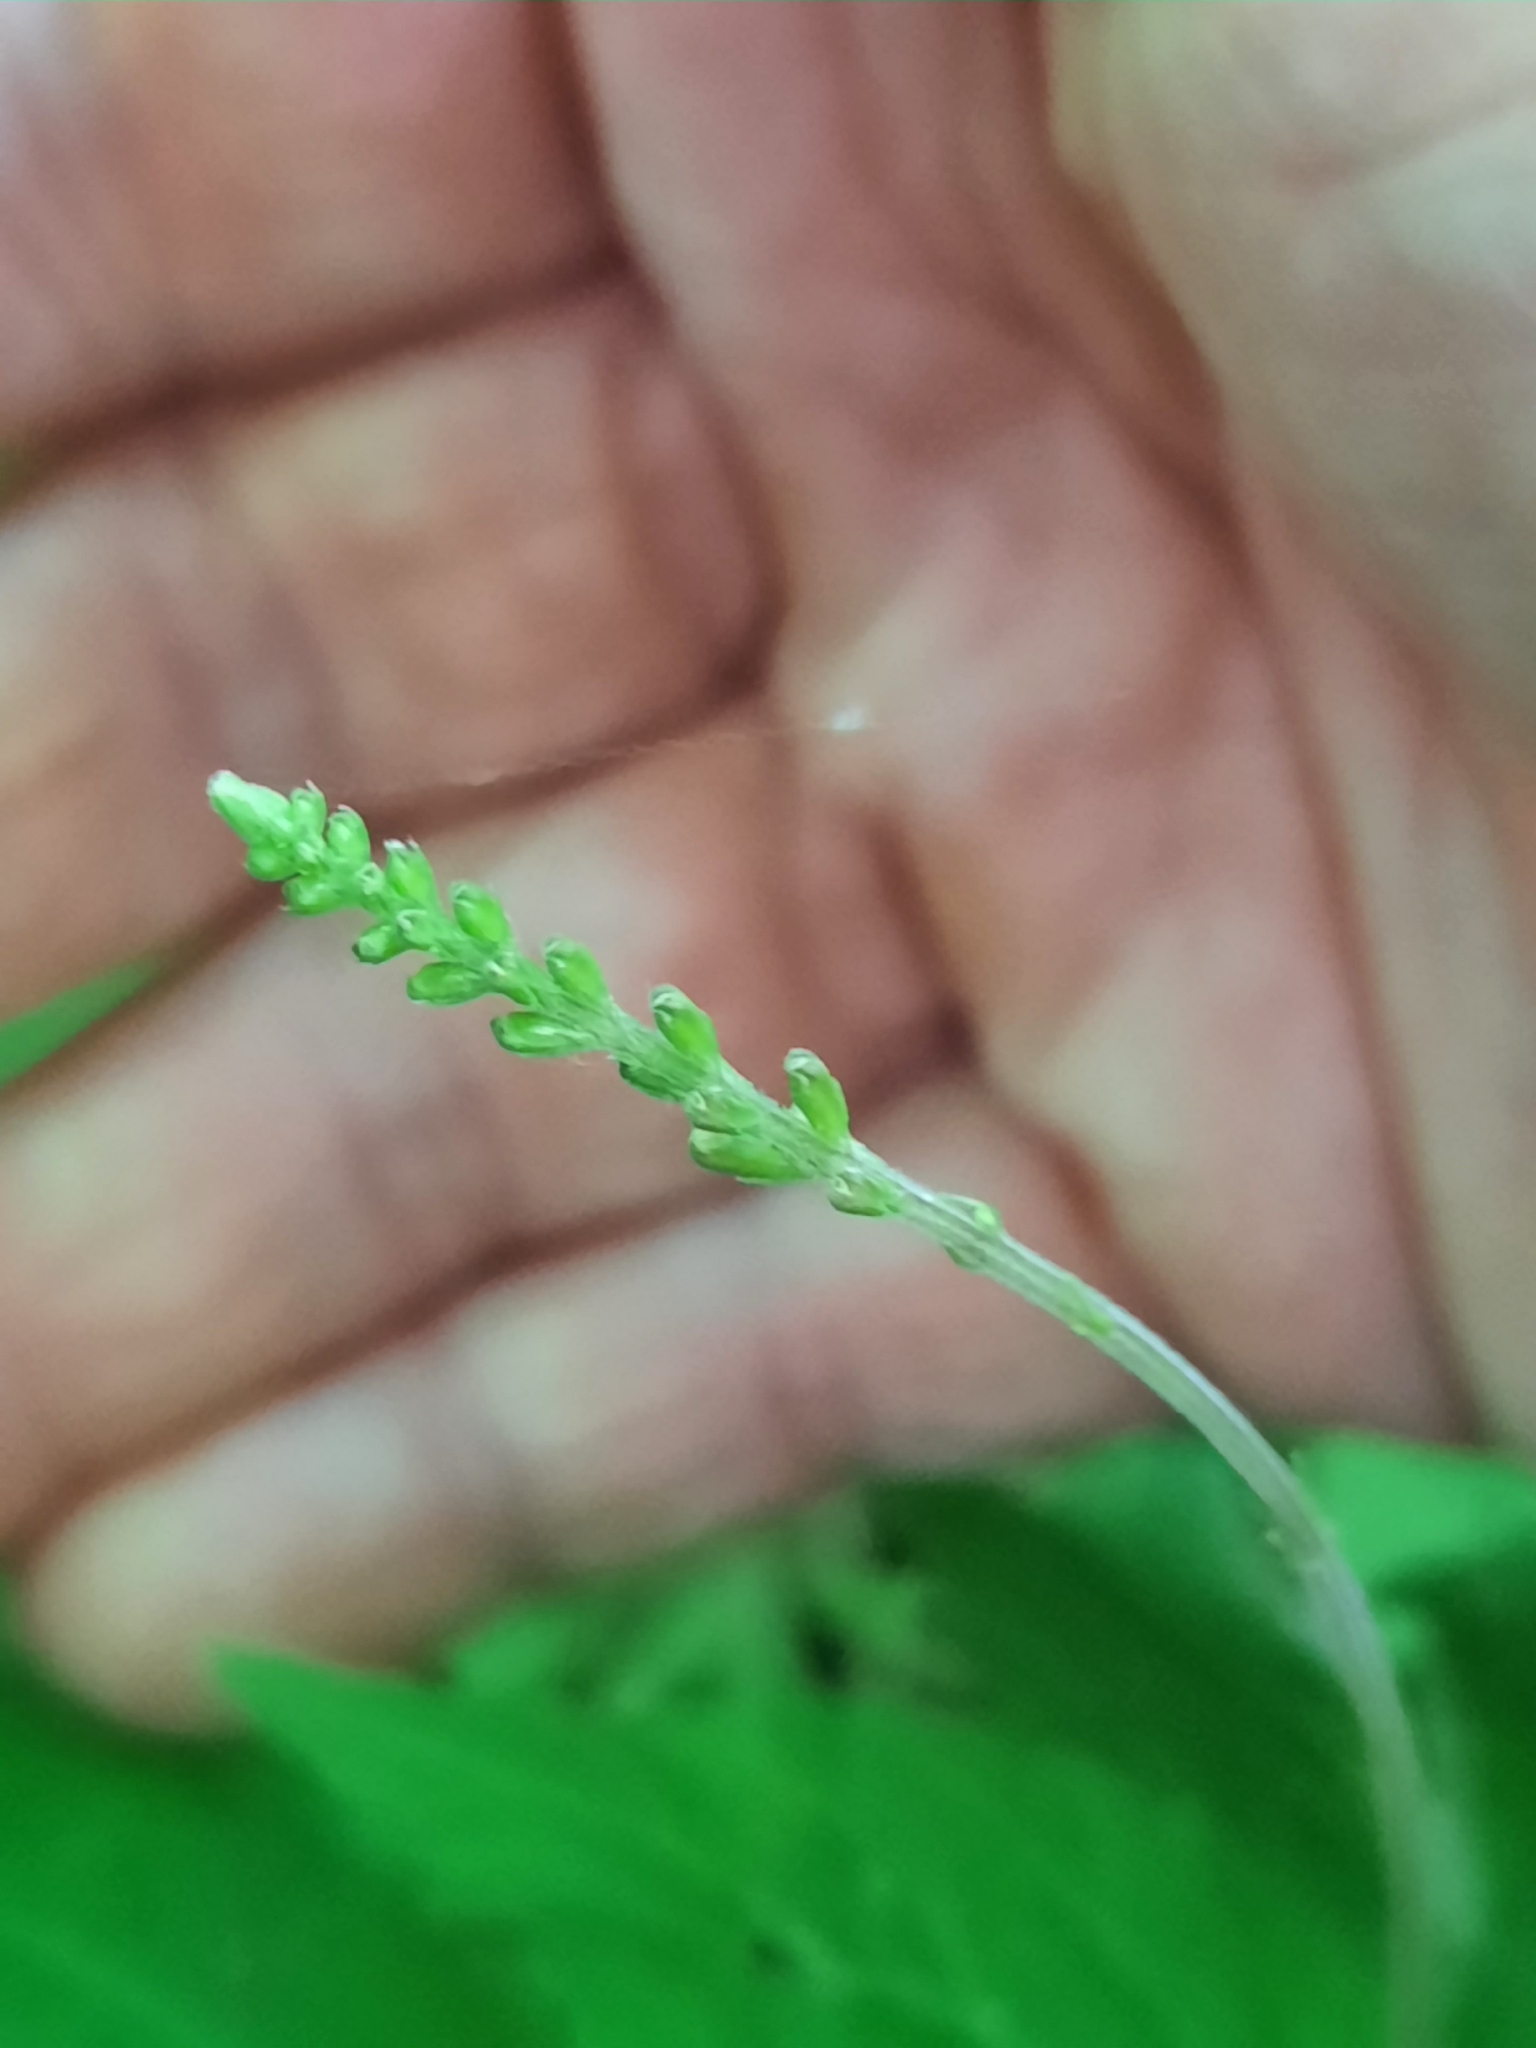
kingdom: Plantae
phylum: Tracheophyta
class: Magnoliopsida
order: Lamiales
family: Phrymaceae
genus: Phryma
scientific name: Phryma leptostachya
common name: American lopseed
